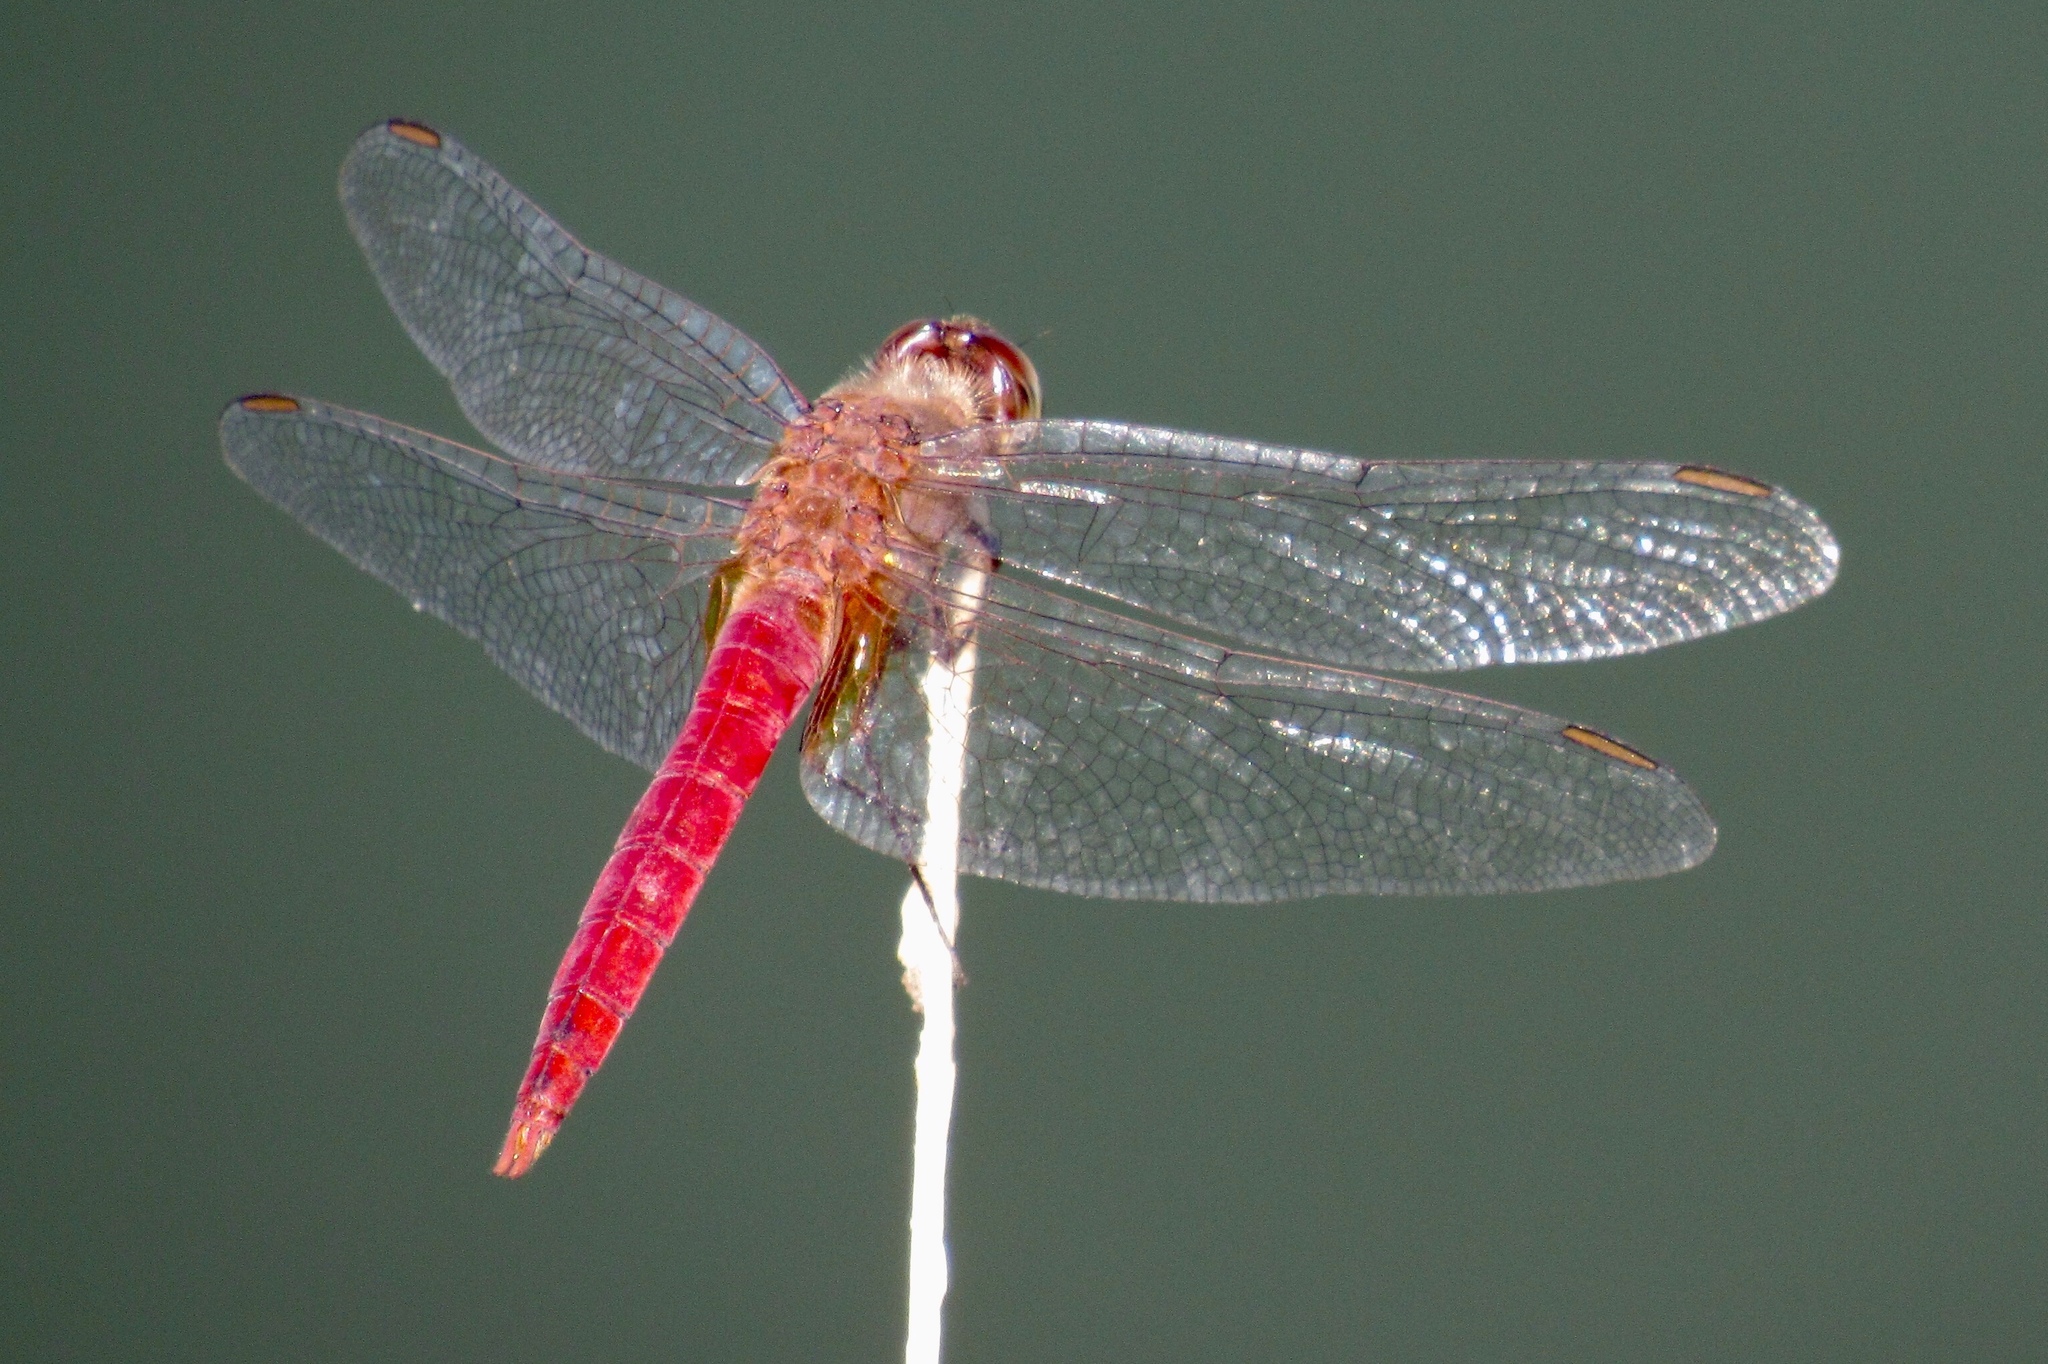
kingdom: Animalia
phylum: Arthropoda
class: Insecta
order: Odonata
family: Libellulidae
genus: Brachymesia
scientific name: Brachymesia furcata
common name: Red-taled pennant
